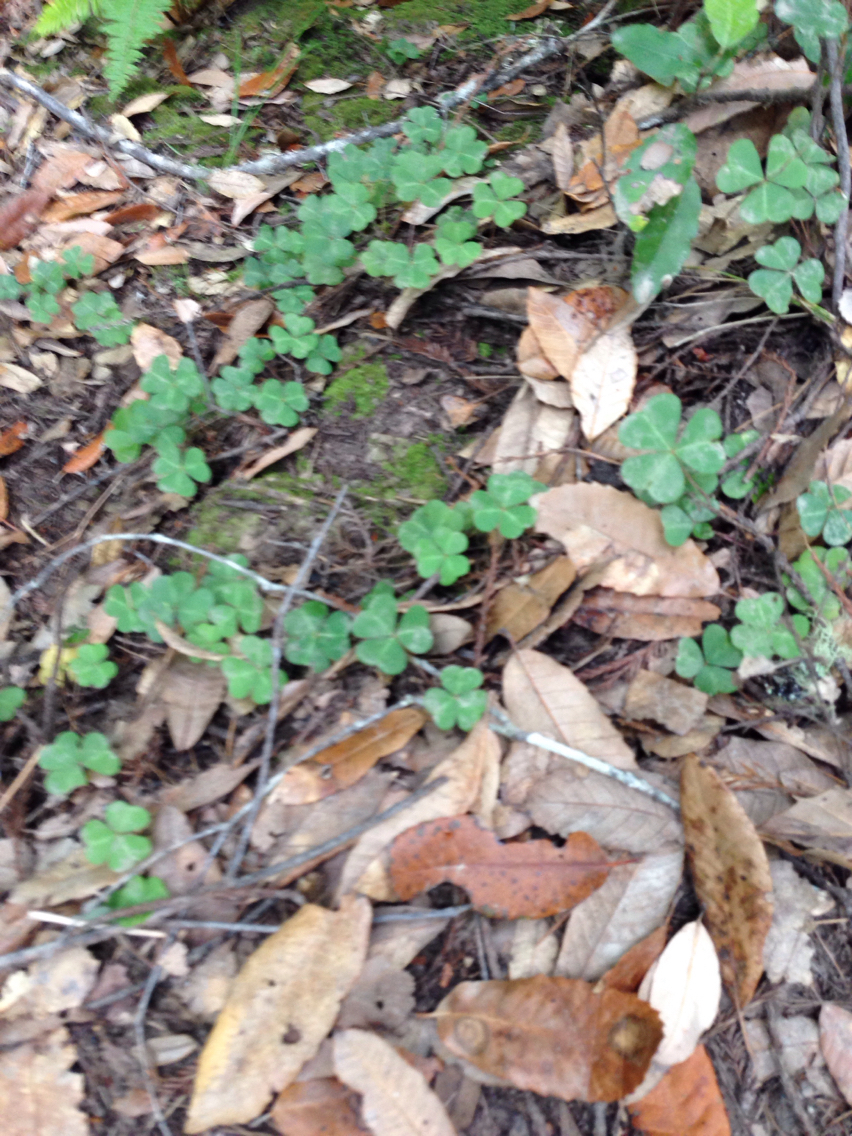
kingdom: Plantae
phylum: Tracheophyta
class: Magnoliopsida
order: Oxalidales
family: Oxalidaceae
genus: Oxalis
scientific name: Oxalis oregana
